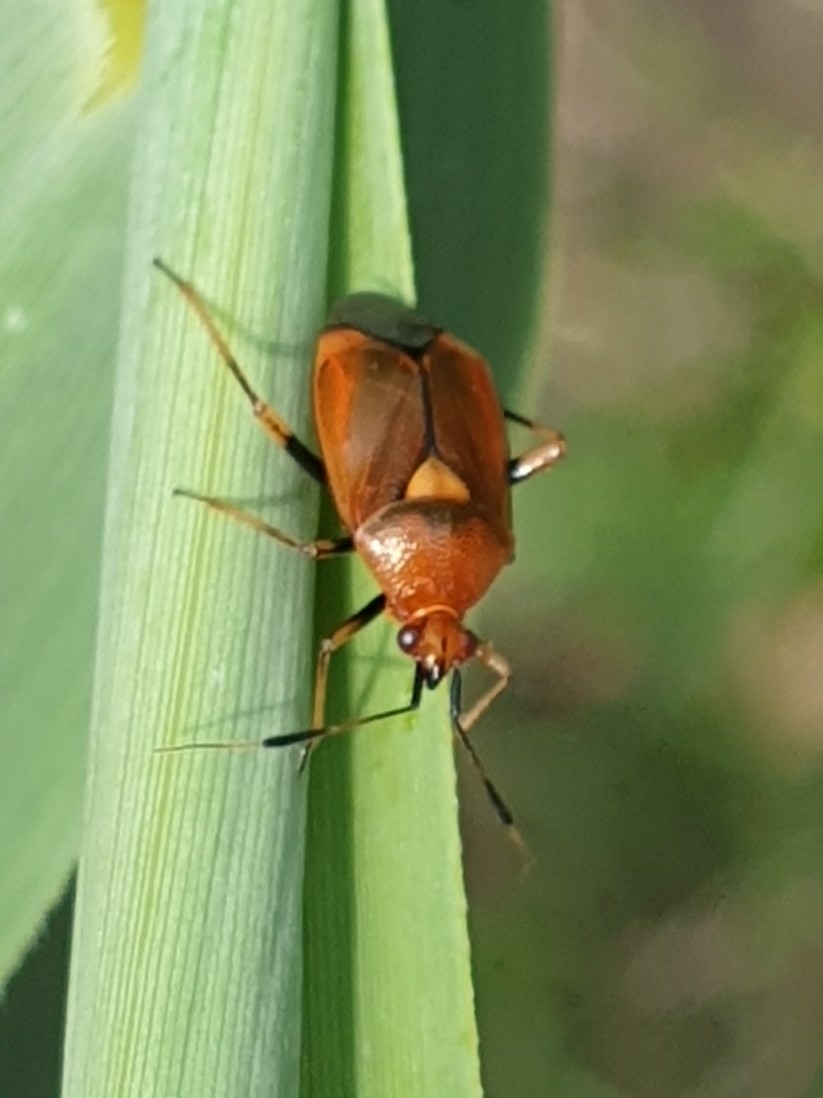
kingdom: Animalia
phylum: Arthropoda
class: Insecta
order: Hemiptera
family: Miridae
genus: Deraeocoris
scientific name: Deraeocoris ruber
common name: Plant bug
